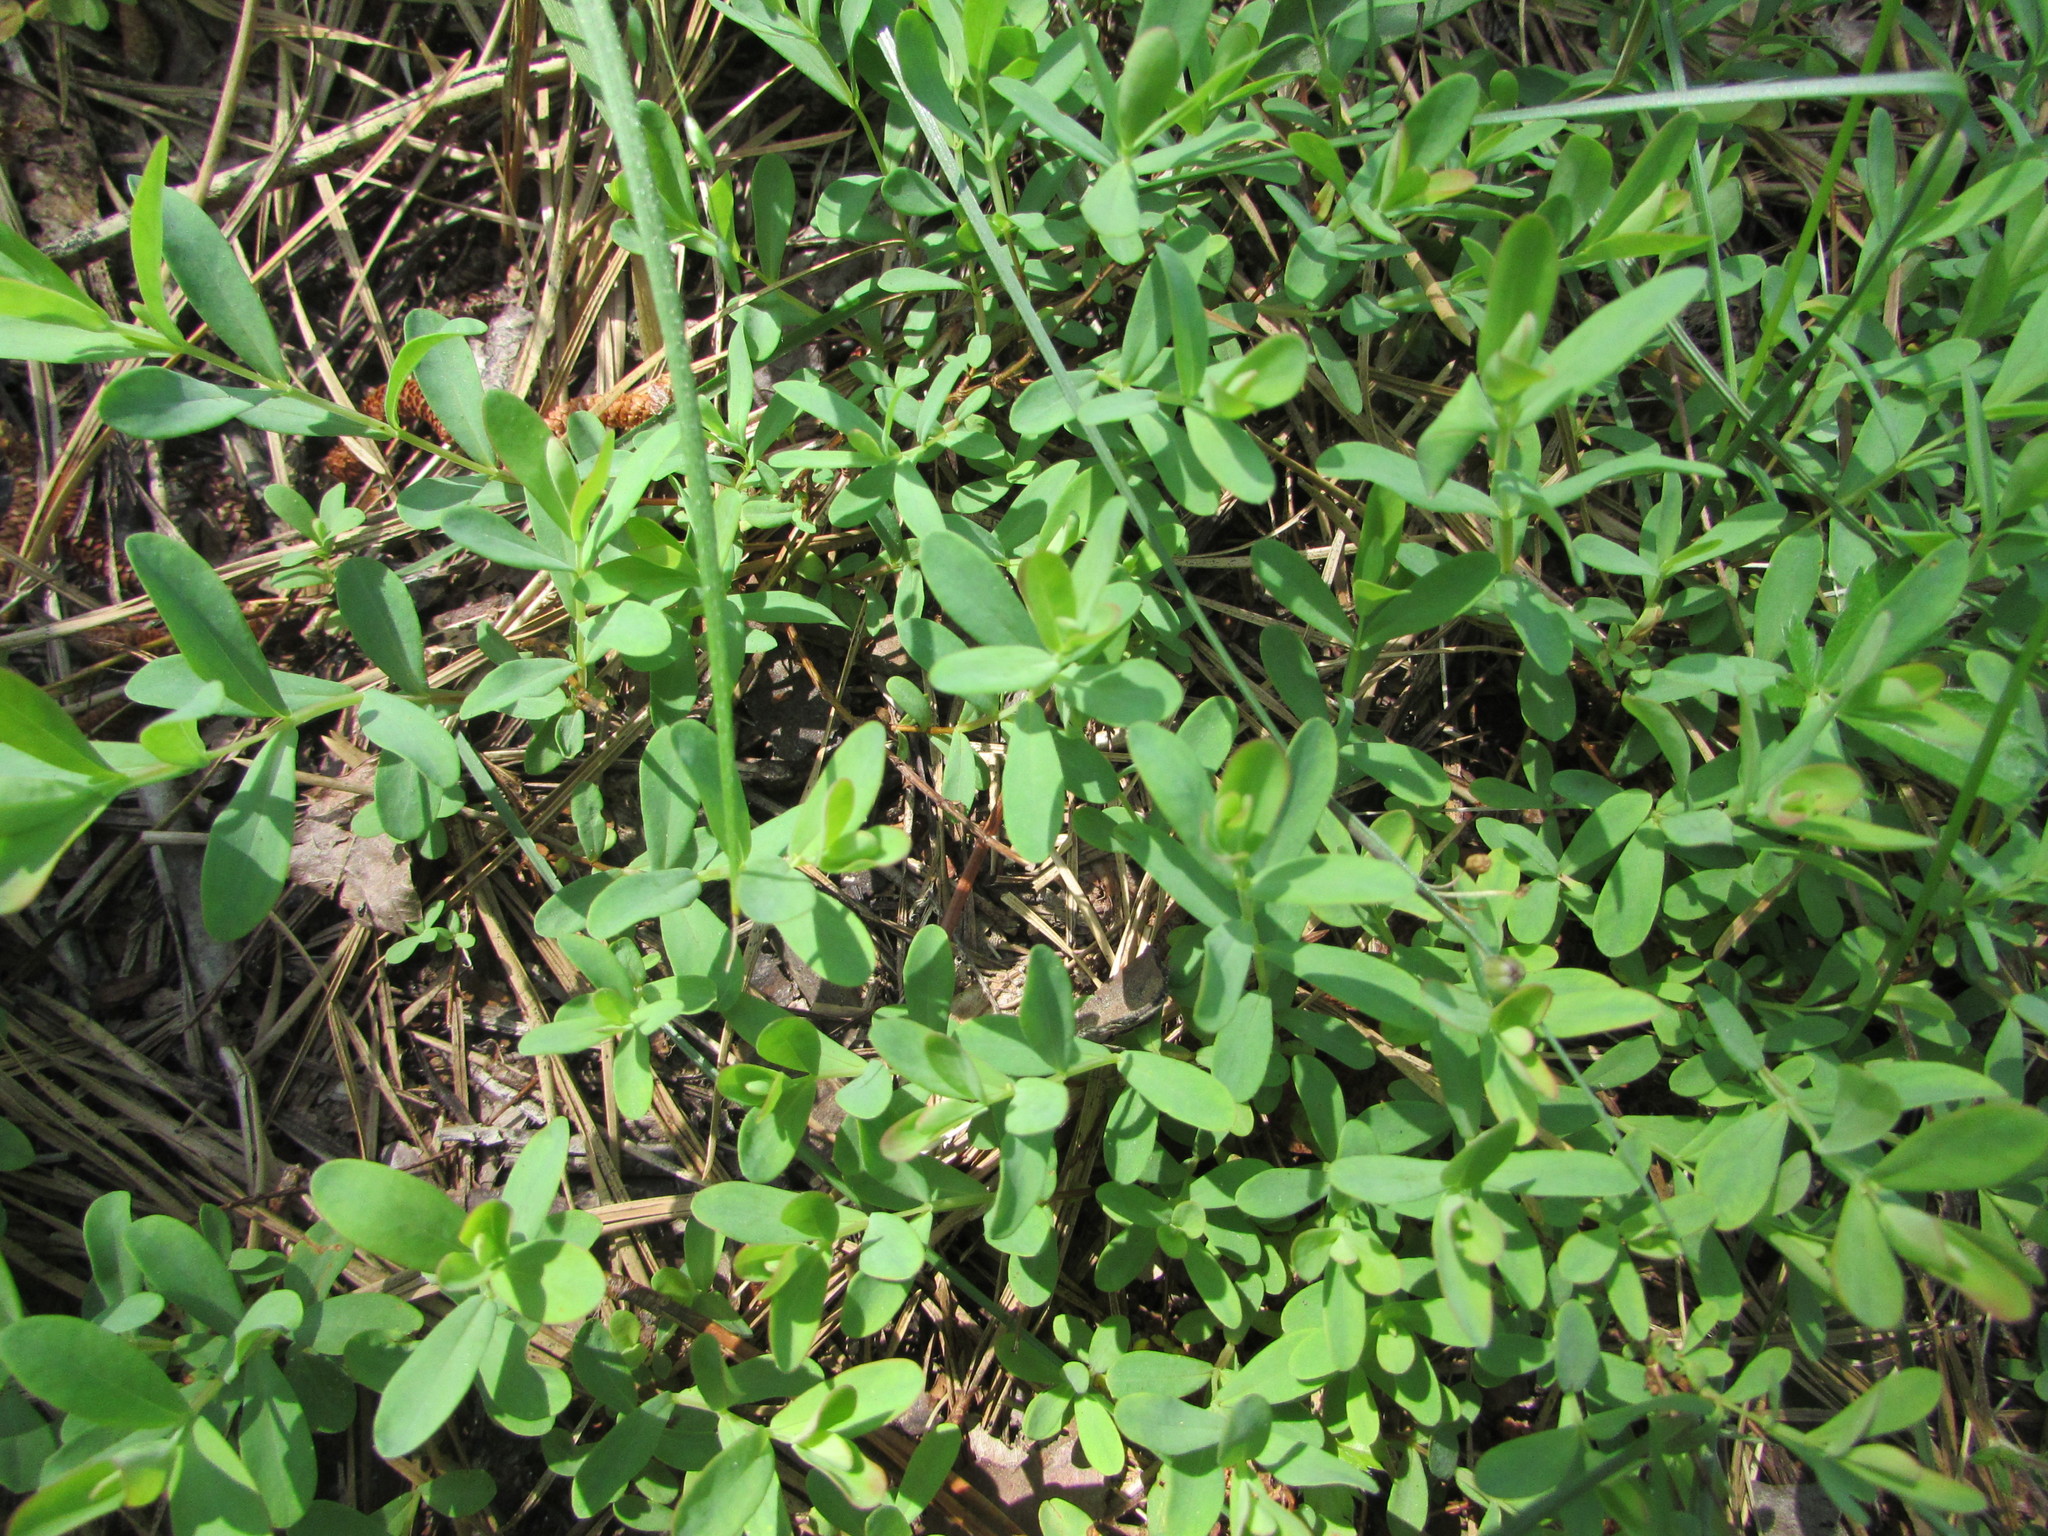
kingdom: Plantae
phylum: Tracheophyta
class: Magnoliopsida
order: Malpighiales
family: Hypericaceae
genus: Hypericum
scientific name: Hypericum hypericoides
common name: St. andrew's cross
